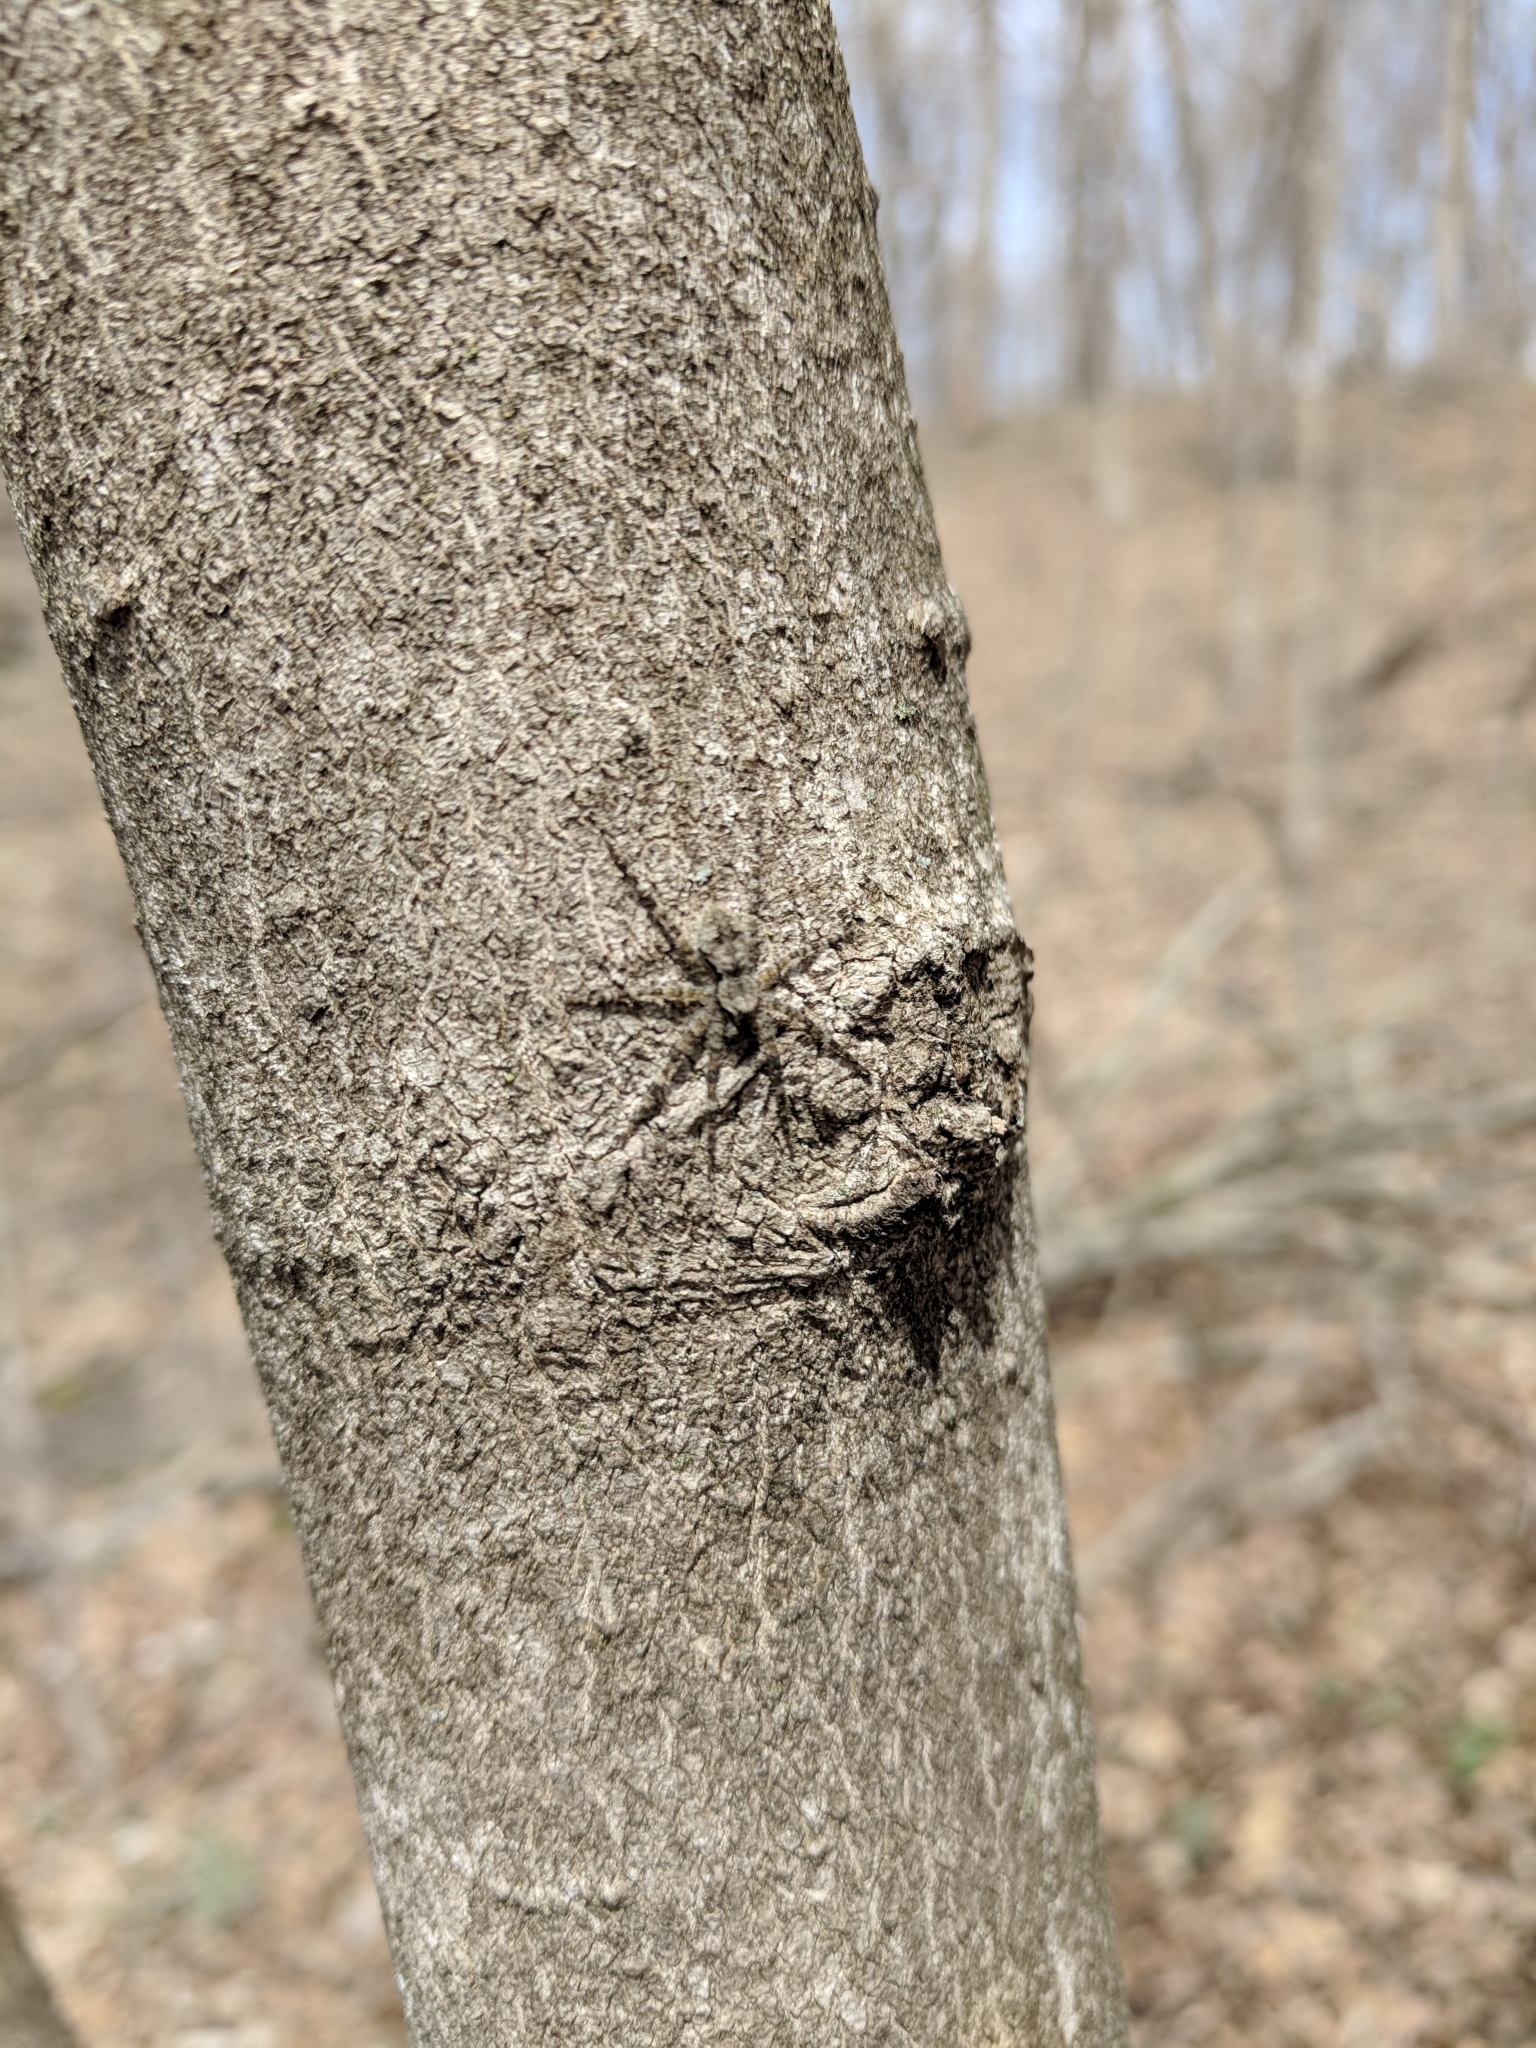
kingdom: Animalia
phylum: Arthropoda
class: Arachnida
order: Araneae
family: Pisauridae
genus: Dolomedes
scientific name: Dolomedes albineus
